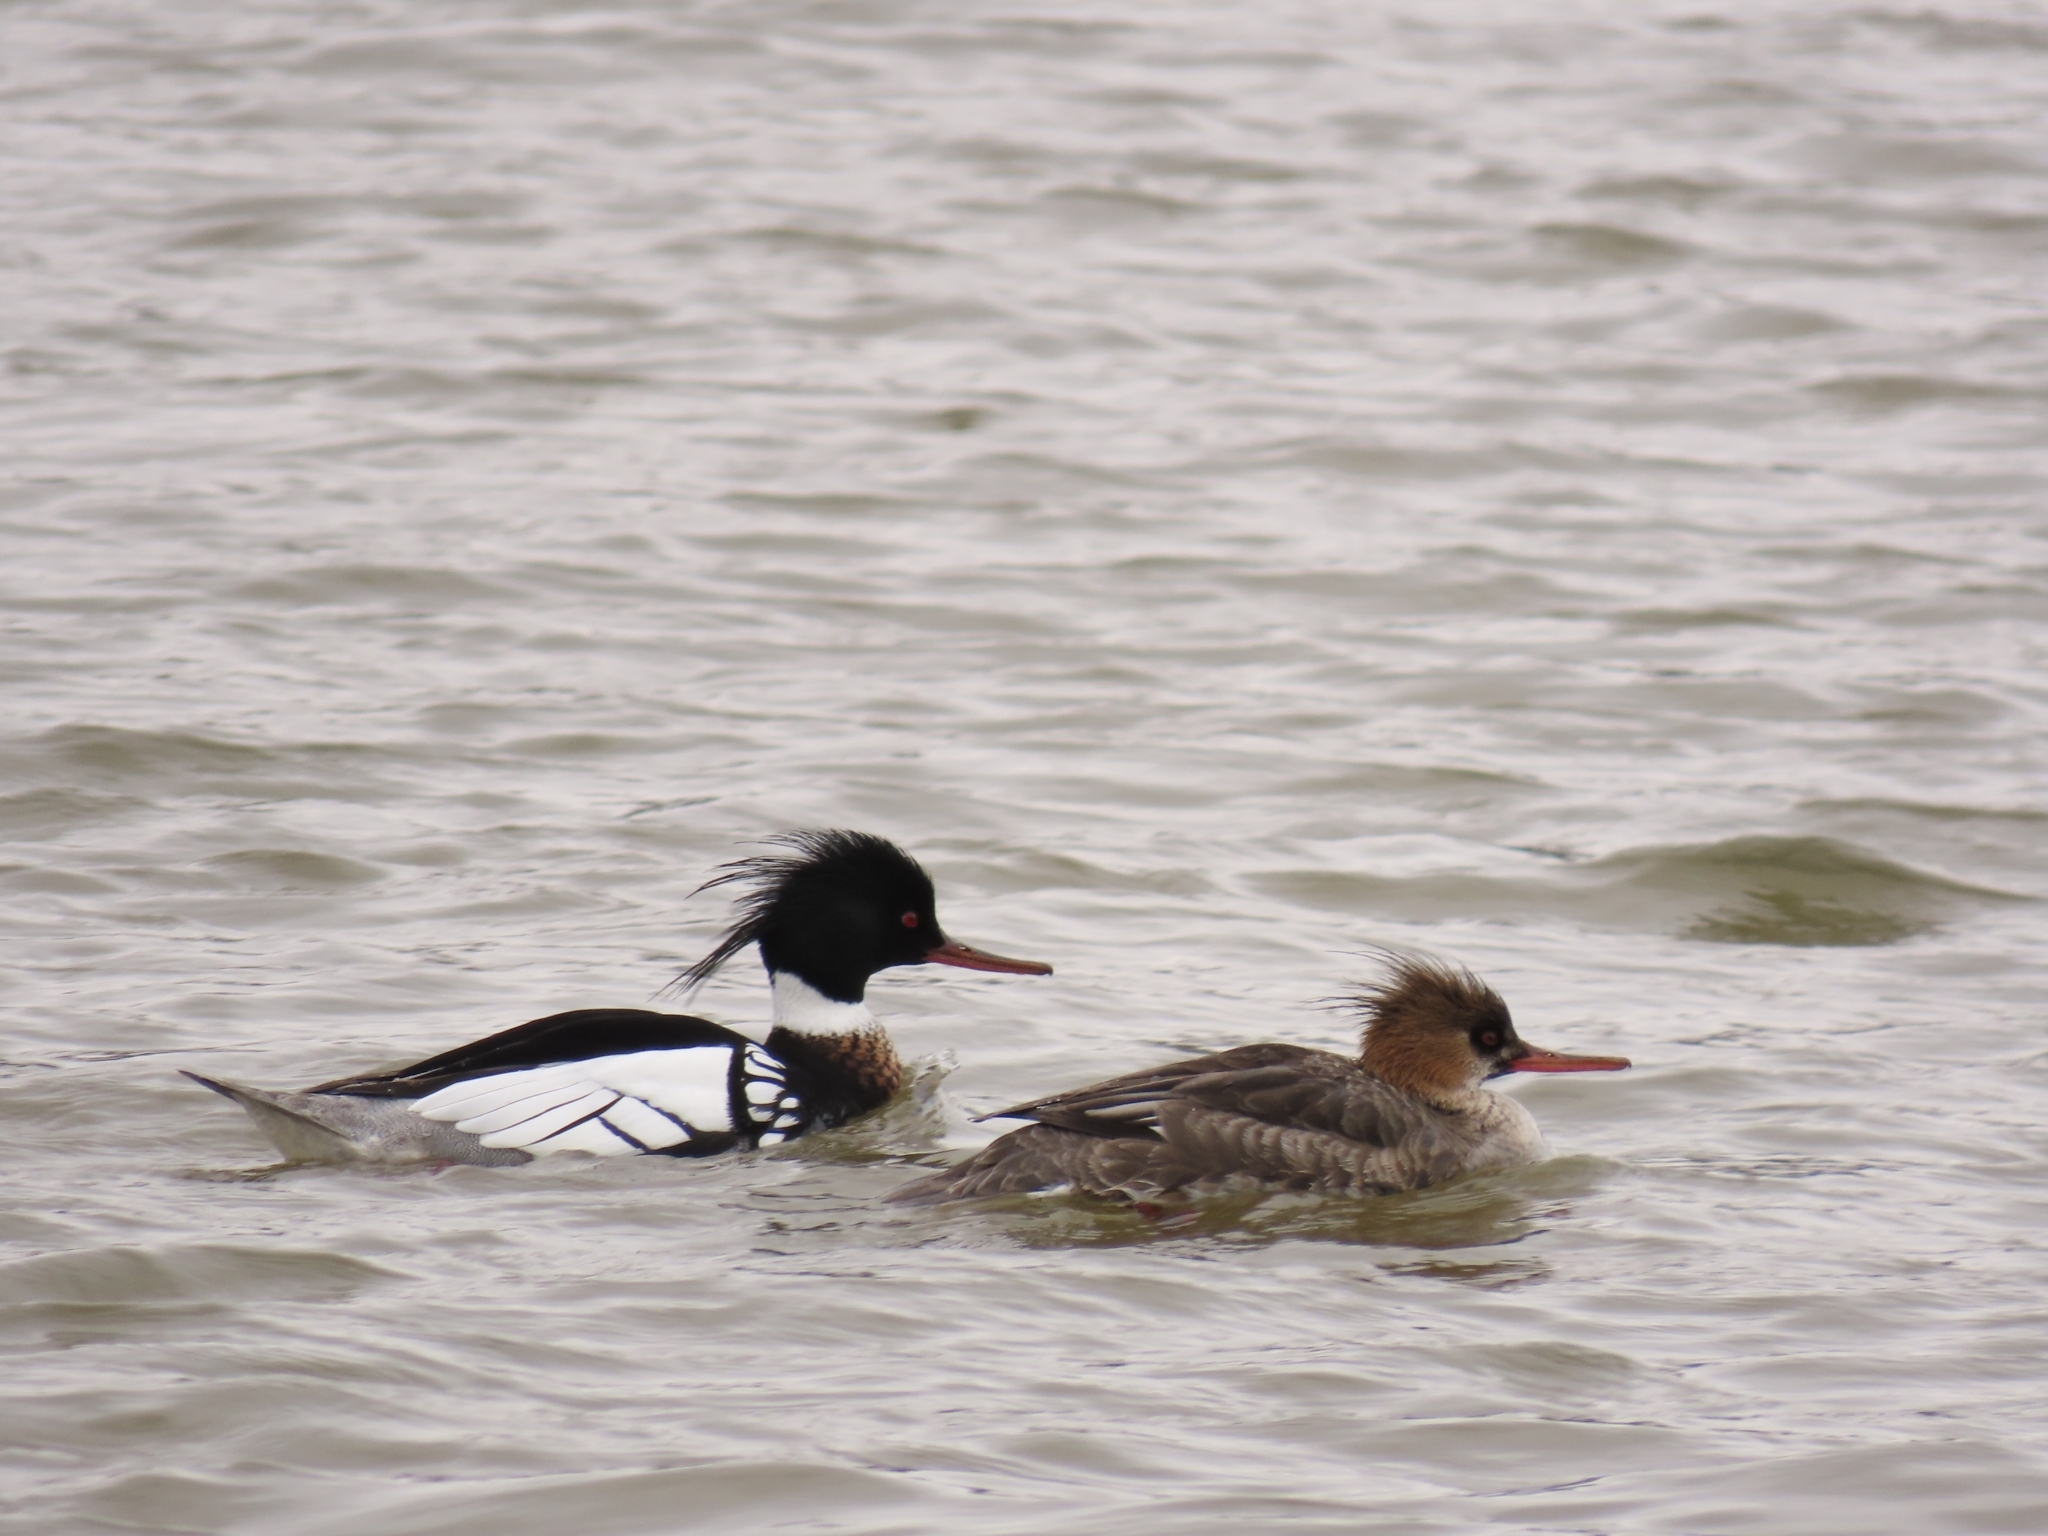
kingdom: Animalia
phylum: Chordata
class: Aves
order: Anseriformes
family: Anatidae
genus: Mergus
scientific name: Mergus serrator
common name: Red-breasted merganser
